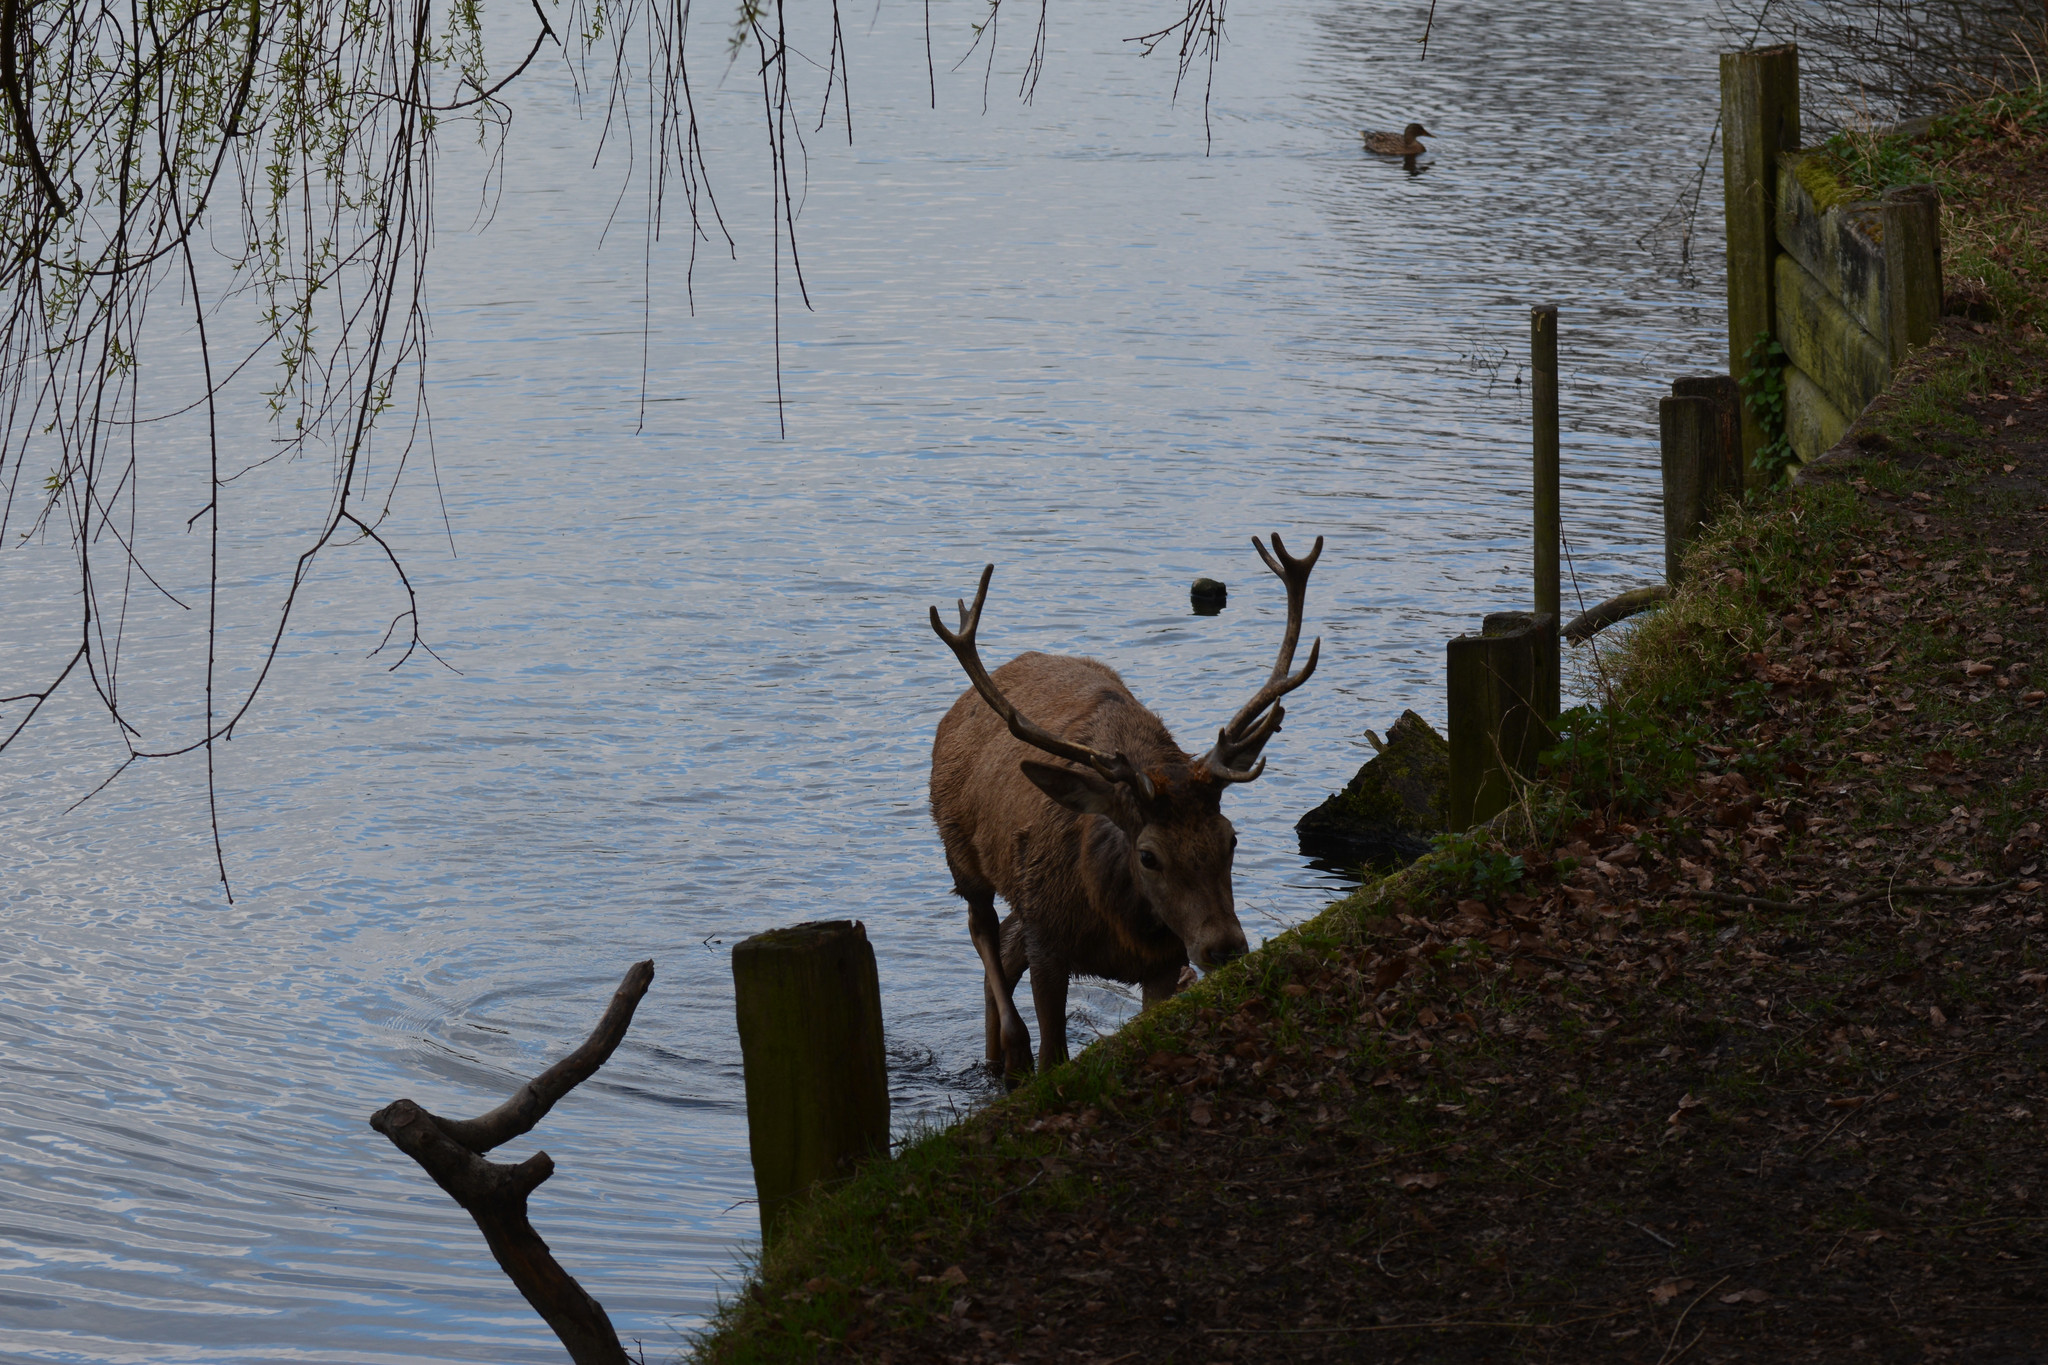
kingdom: Animalia
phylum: Chordata
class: Mammalia
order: Artiodactyla
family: Cervidae
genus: Cervus
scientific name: Cervus elaphus
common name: Red deer
